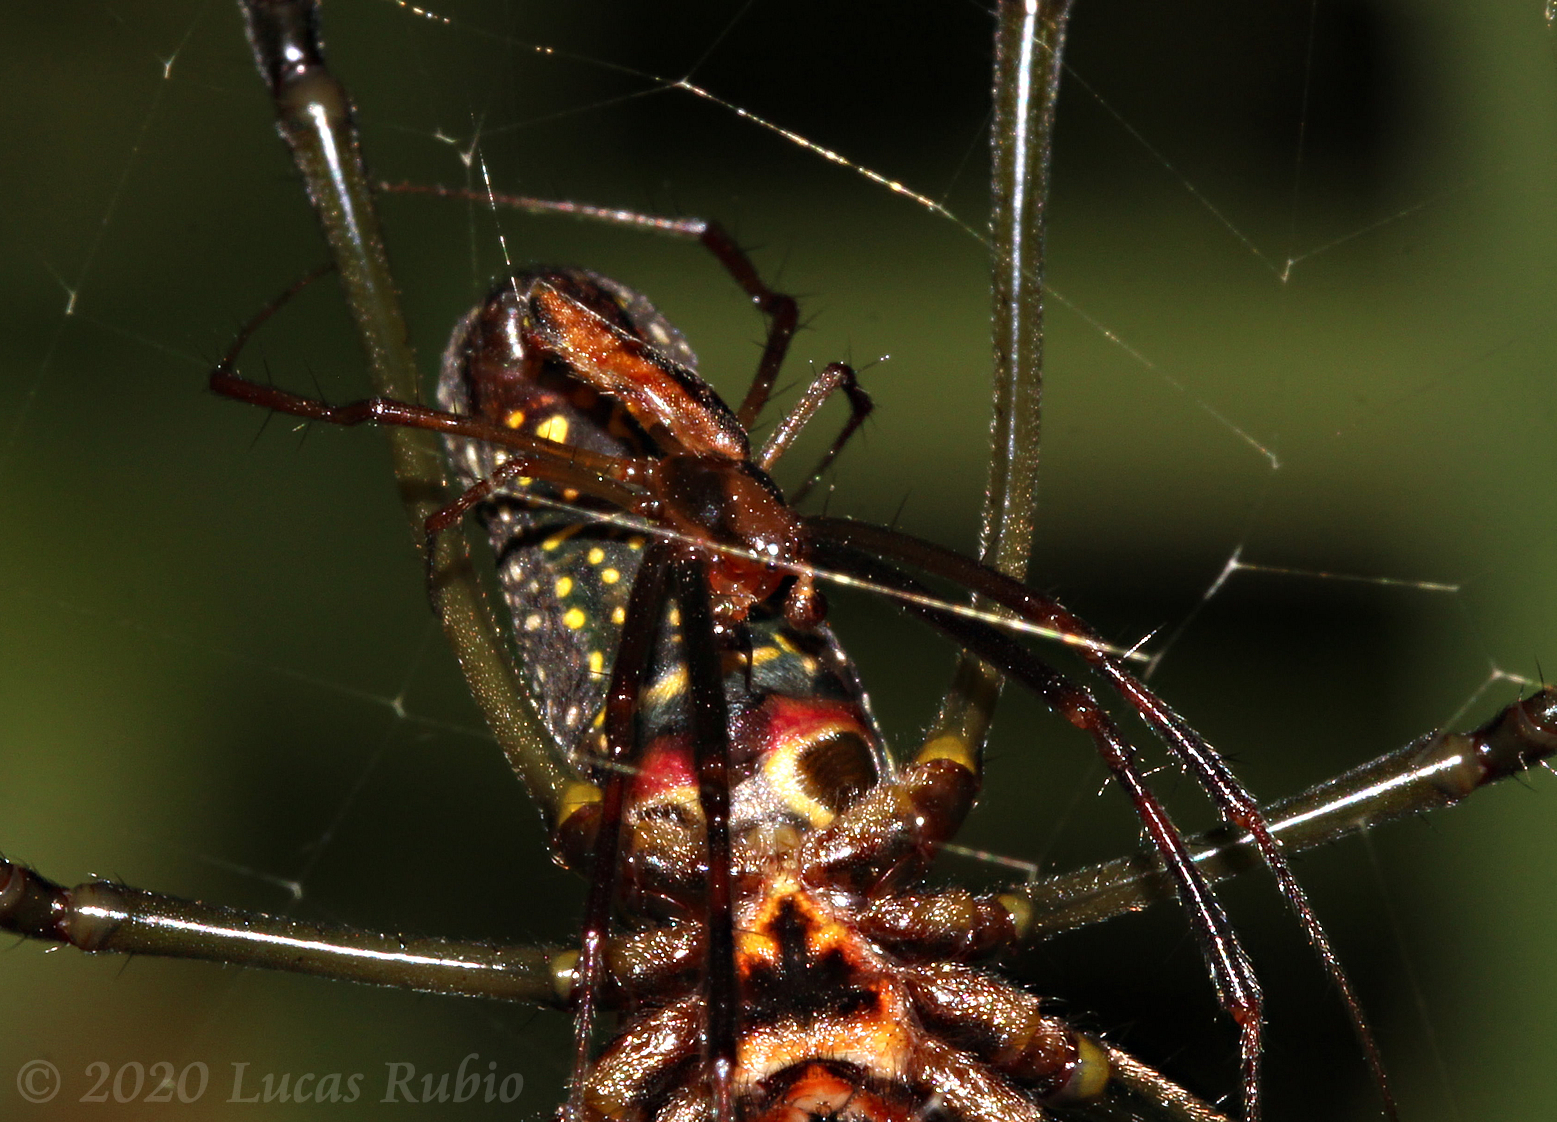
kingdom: Animalia
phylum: Arthropoda
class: Arachnida
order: Araneae
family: Araneidae
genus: Trichonephila
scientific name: Trichonephila clavipes
